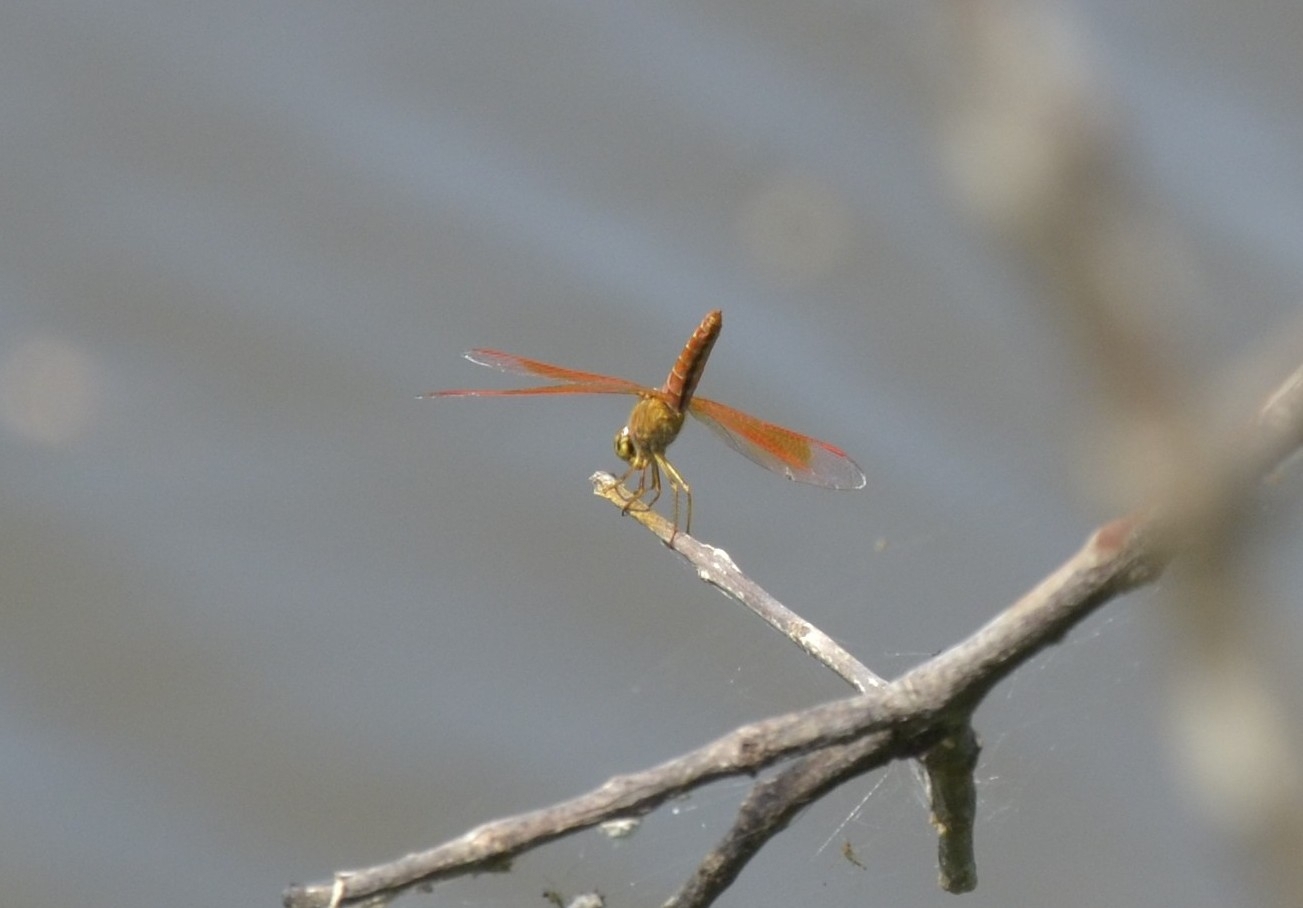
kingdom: Animalia
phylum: Arthropoda
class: Insecta
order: Odonata
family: Libellulidae
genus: Brachythemis
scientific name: Brachythemis contaminata
